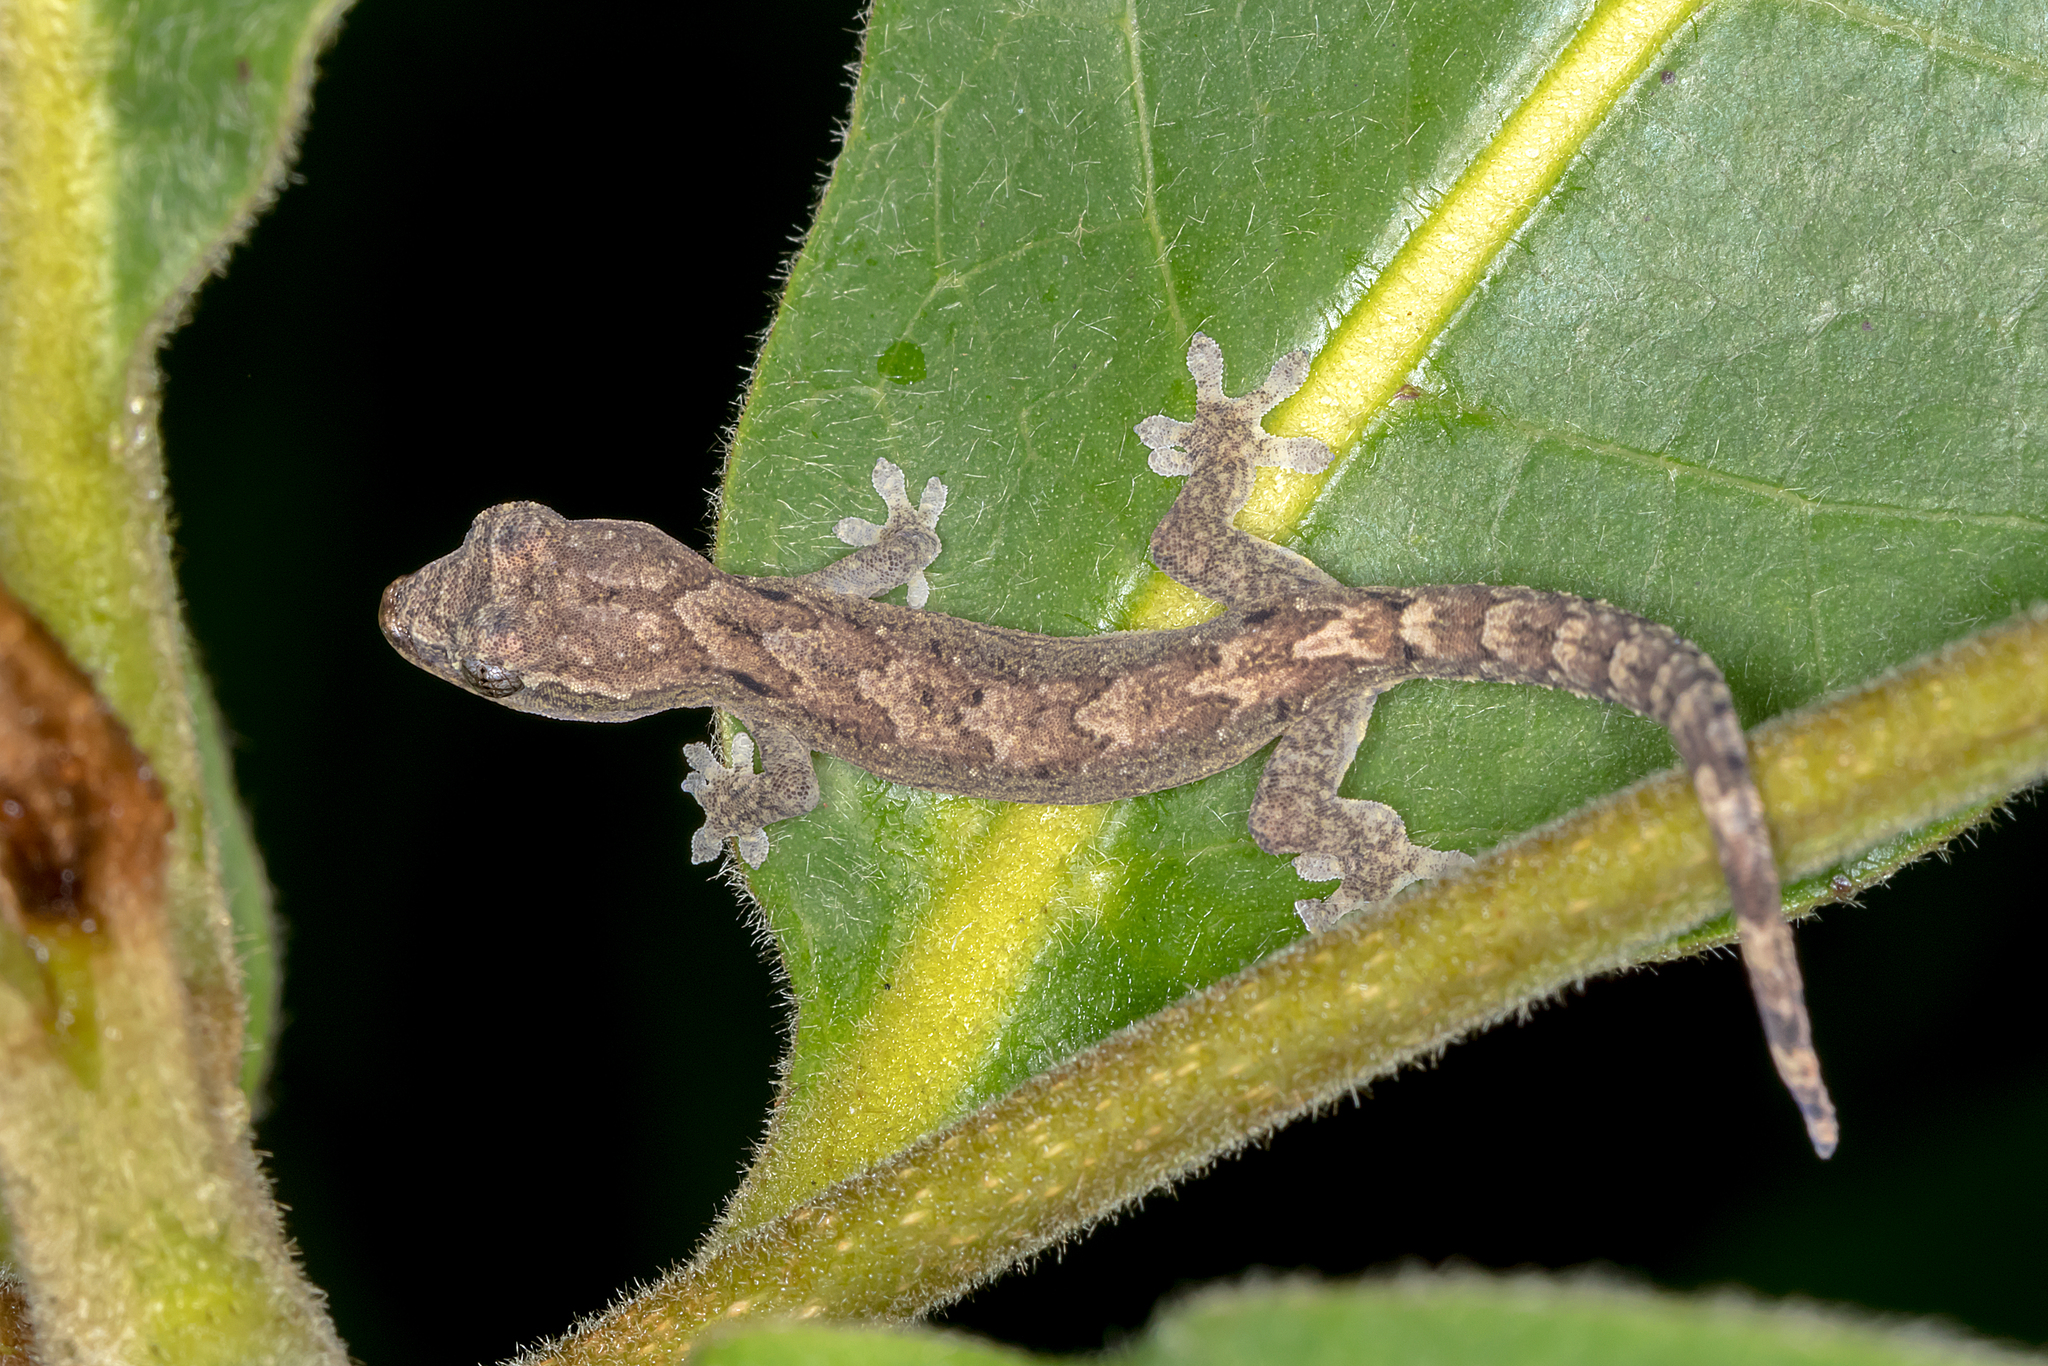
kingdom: Animalia
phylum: Chordata
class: Squamata
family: Gekkonidae
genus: Lepidodactylus
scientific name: Lepidodactylus lugubris
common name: Mourning gecko
